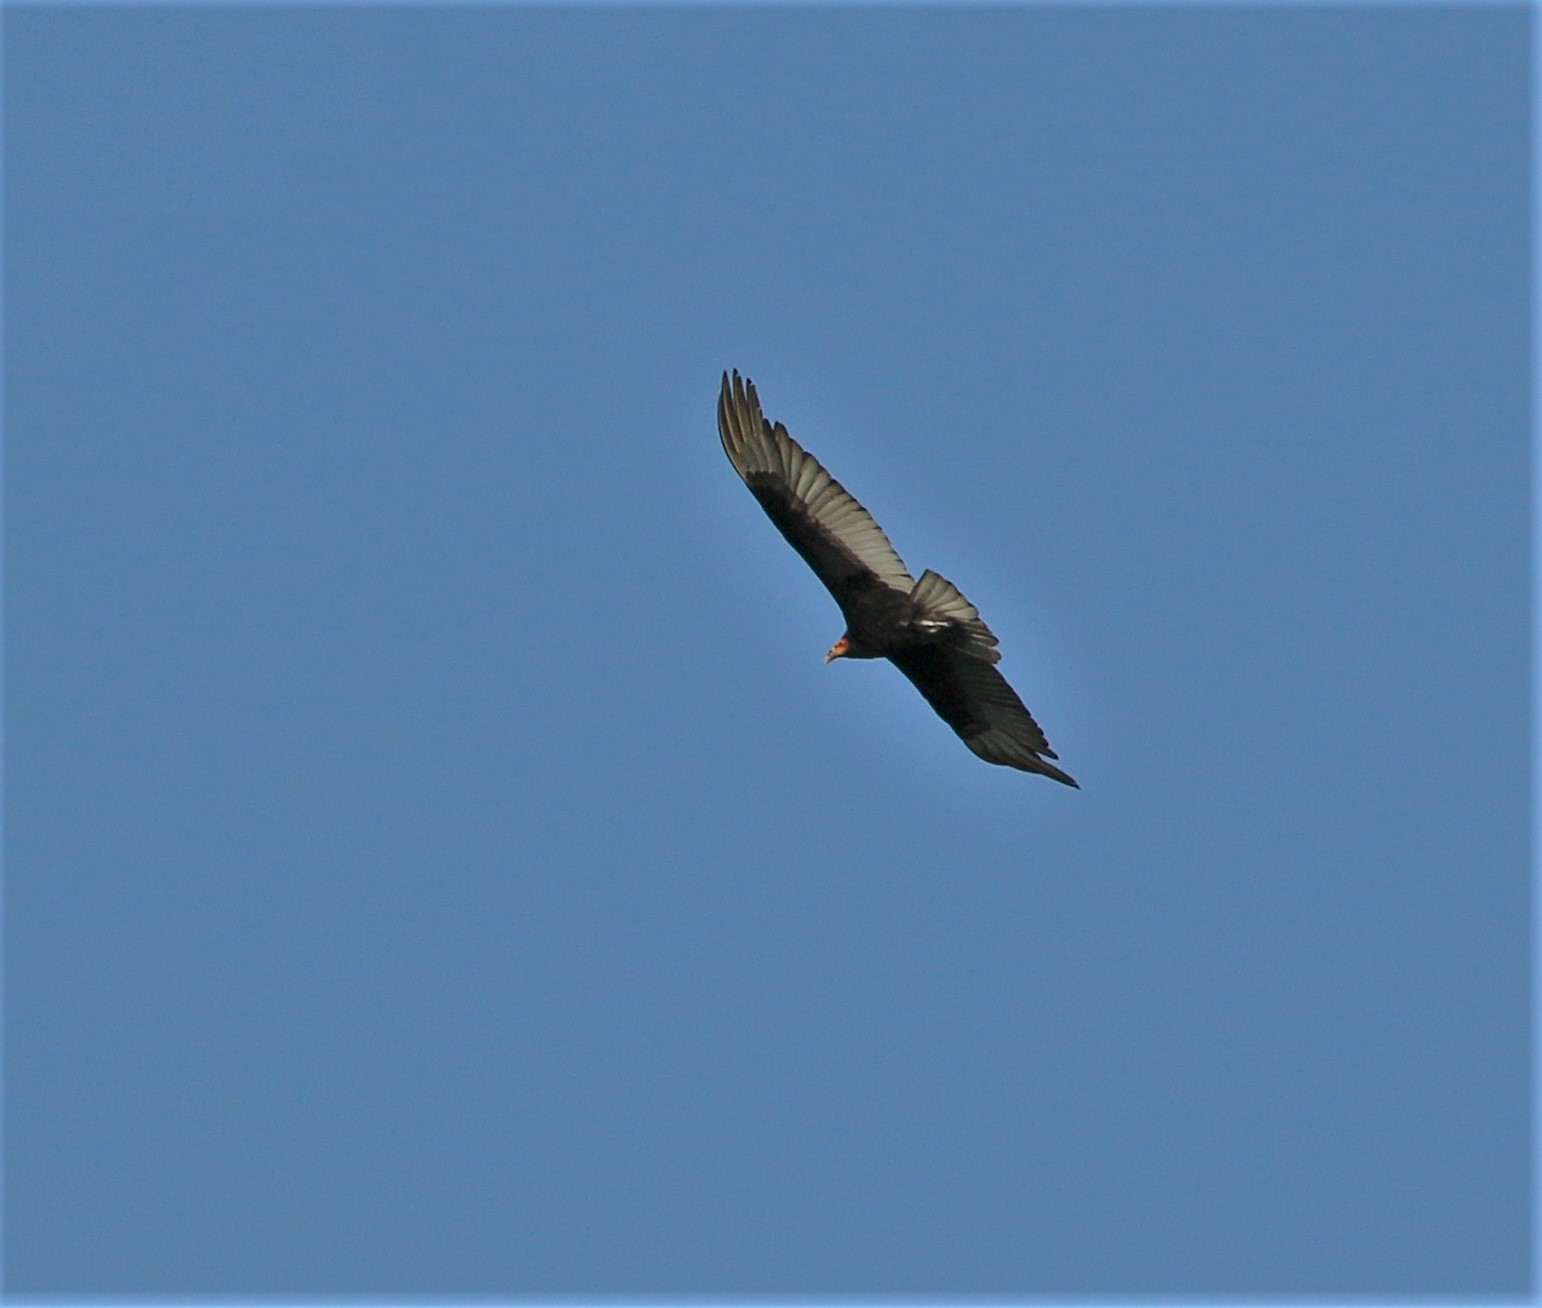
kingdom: Animalia
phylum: Chordata
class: Aves
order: Accipitriformes
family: Cathartidae
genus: Cathartes
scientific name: Cathartes aura
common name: Turkey vulture
